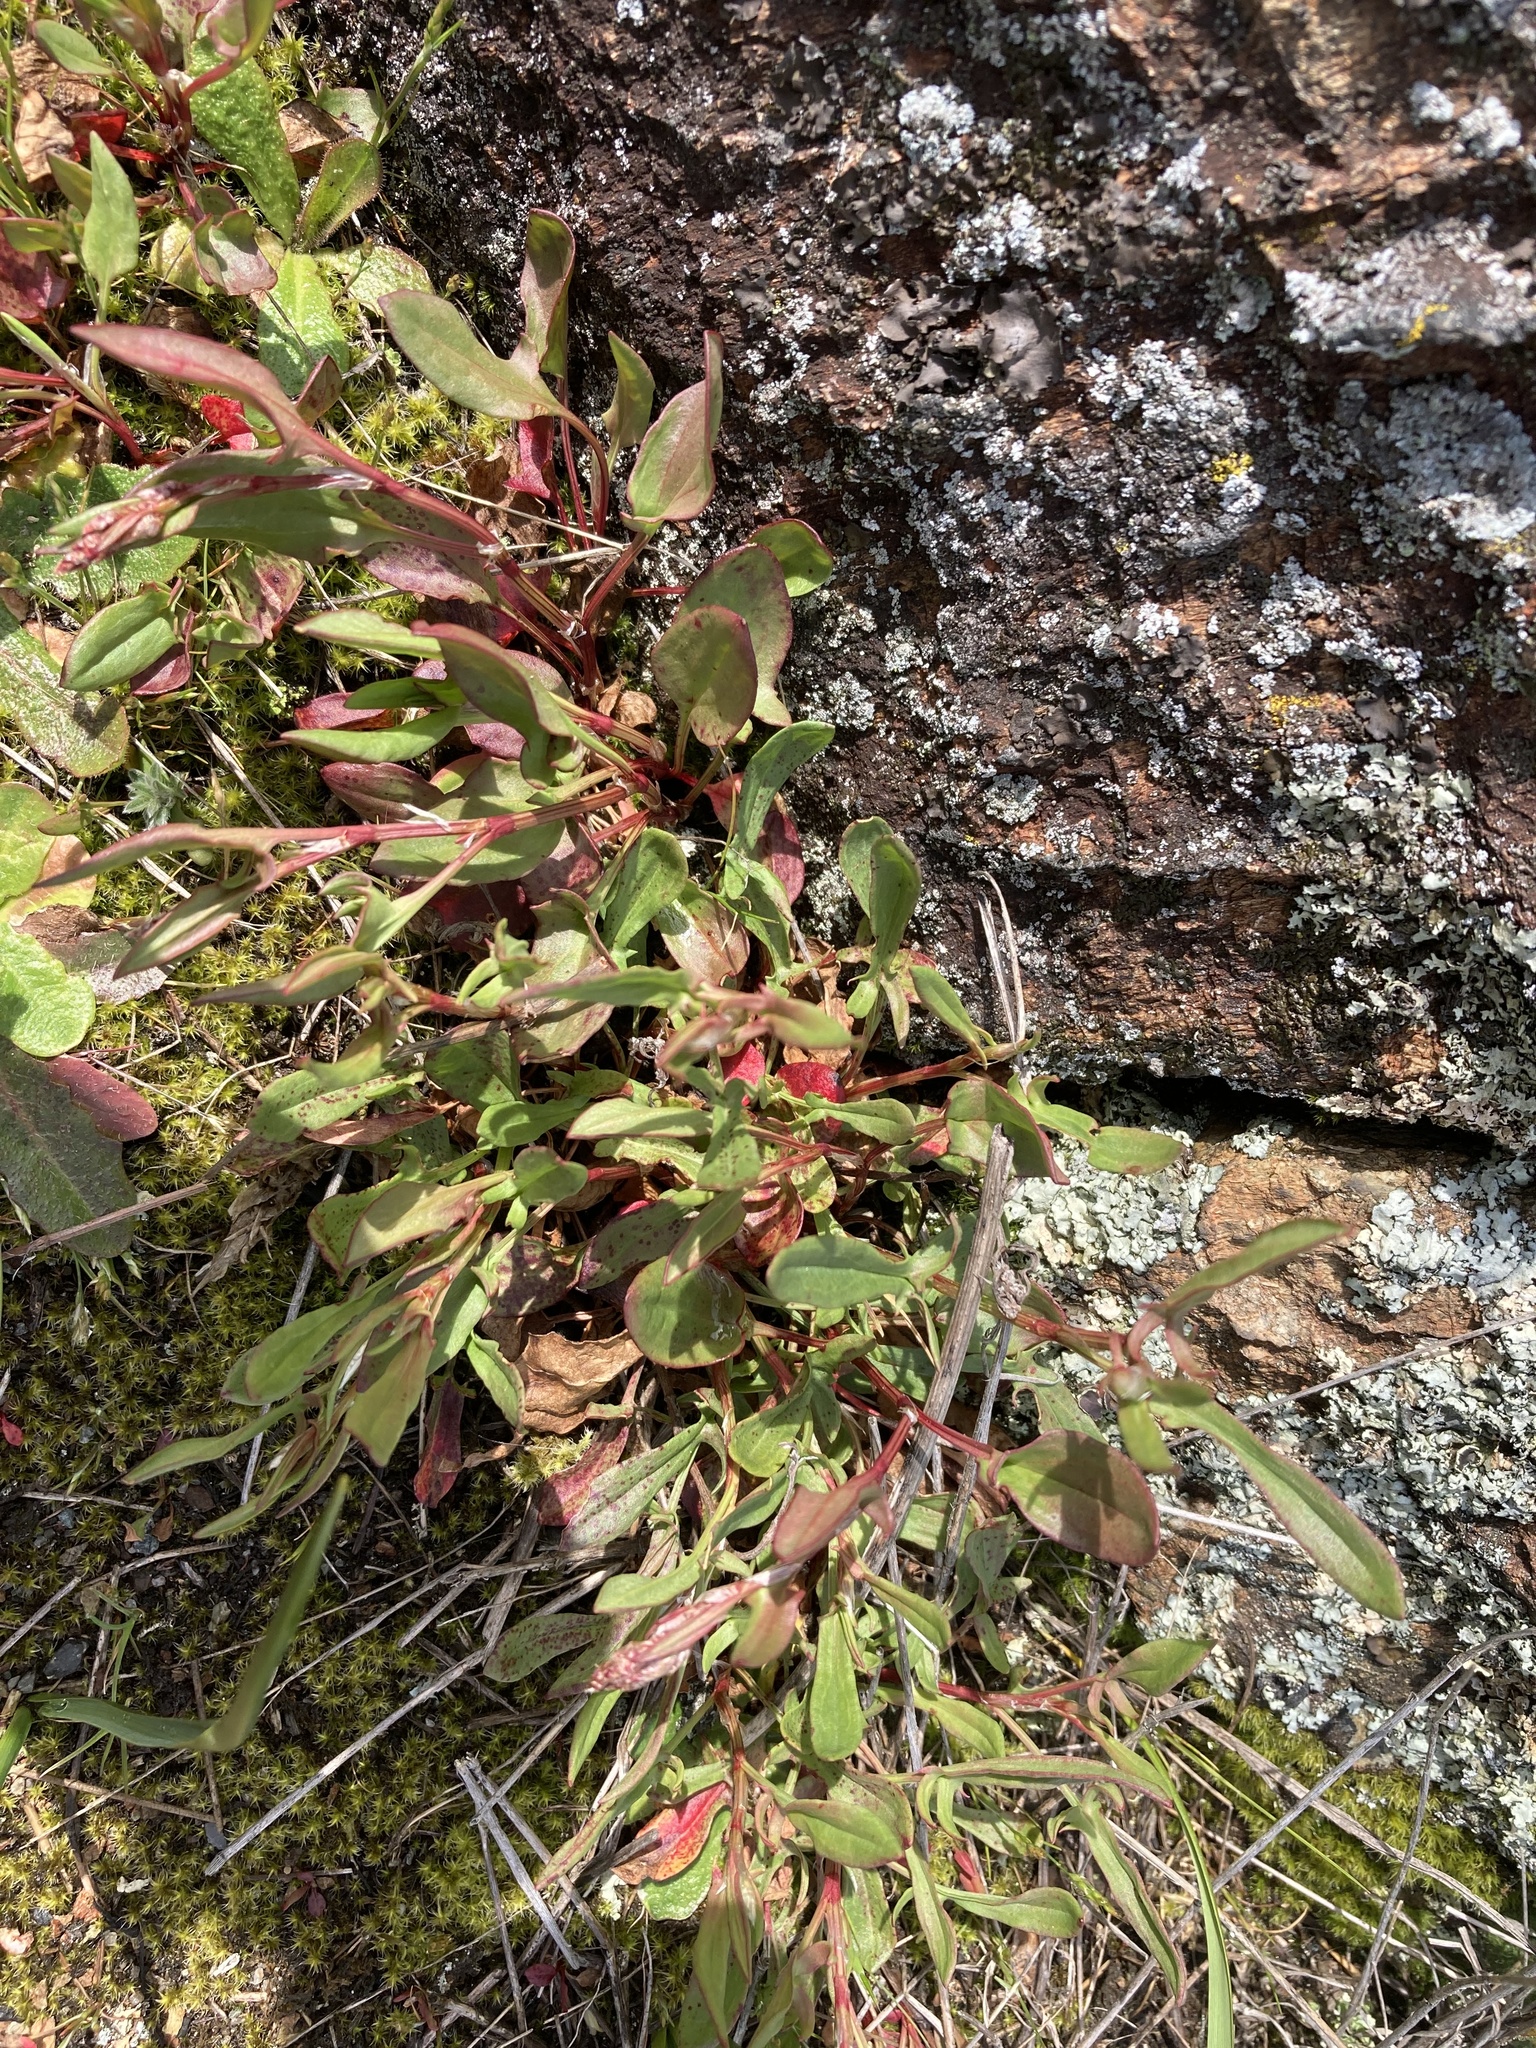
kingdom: Plantae
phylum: Tracheophyta
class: Magnoliopsida
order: Caryophyllales
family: Polygonaceae
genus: Rumex
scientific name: Rumex acetosella
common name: Common sheep sorrel
